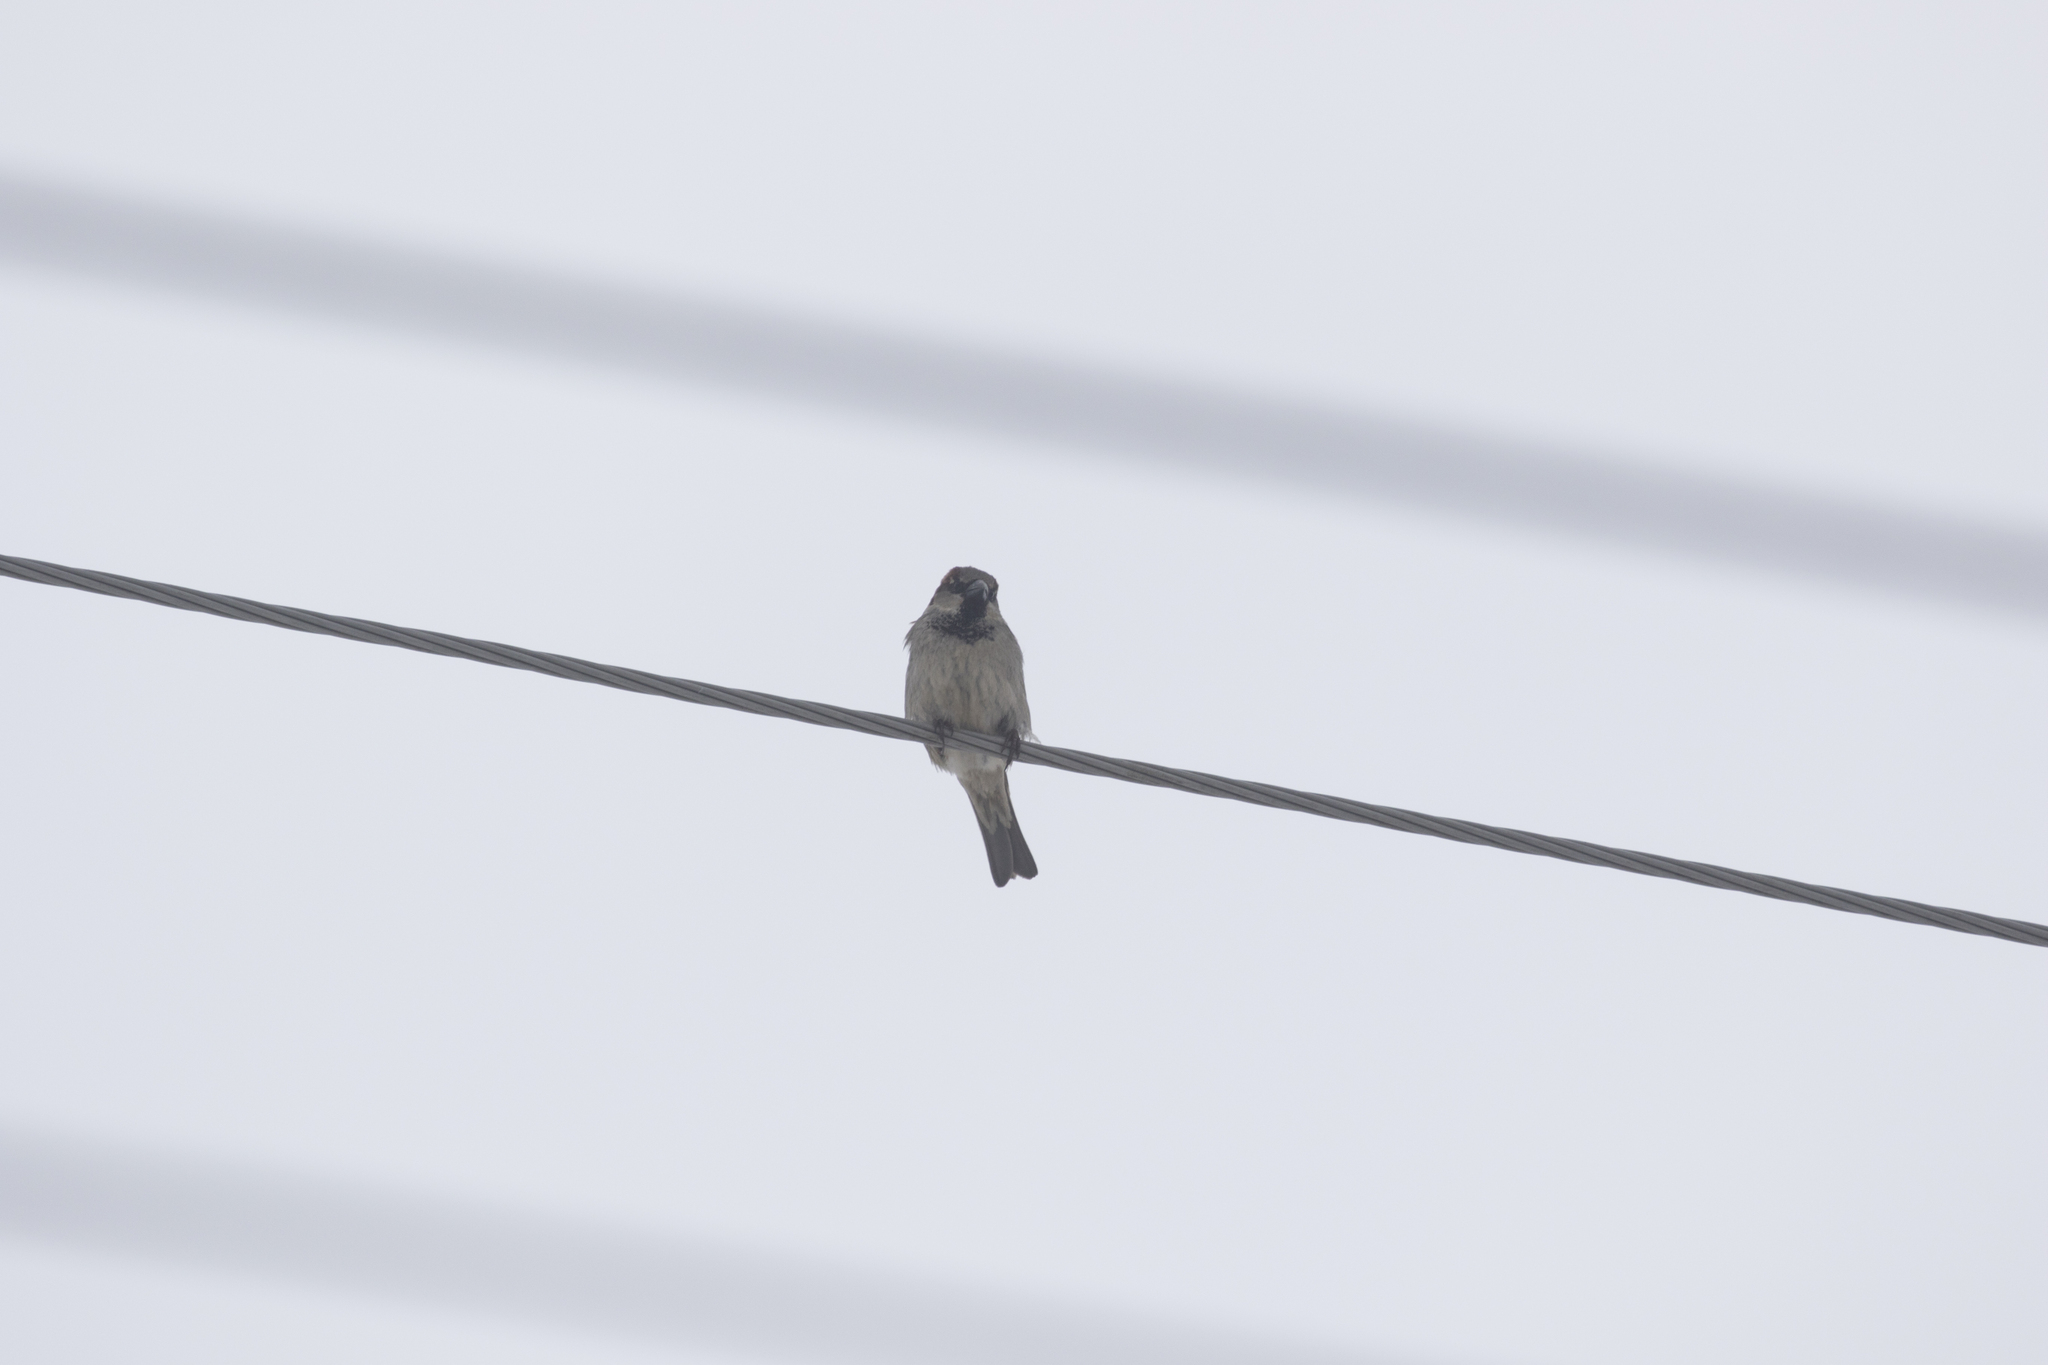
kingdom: Animalia
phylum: Chordata
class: Aves
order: Passeriformes
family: Passeridae
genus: Passer
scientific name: Passer domesticus
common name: House sparrow
